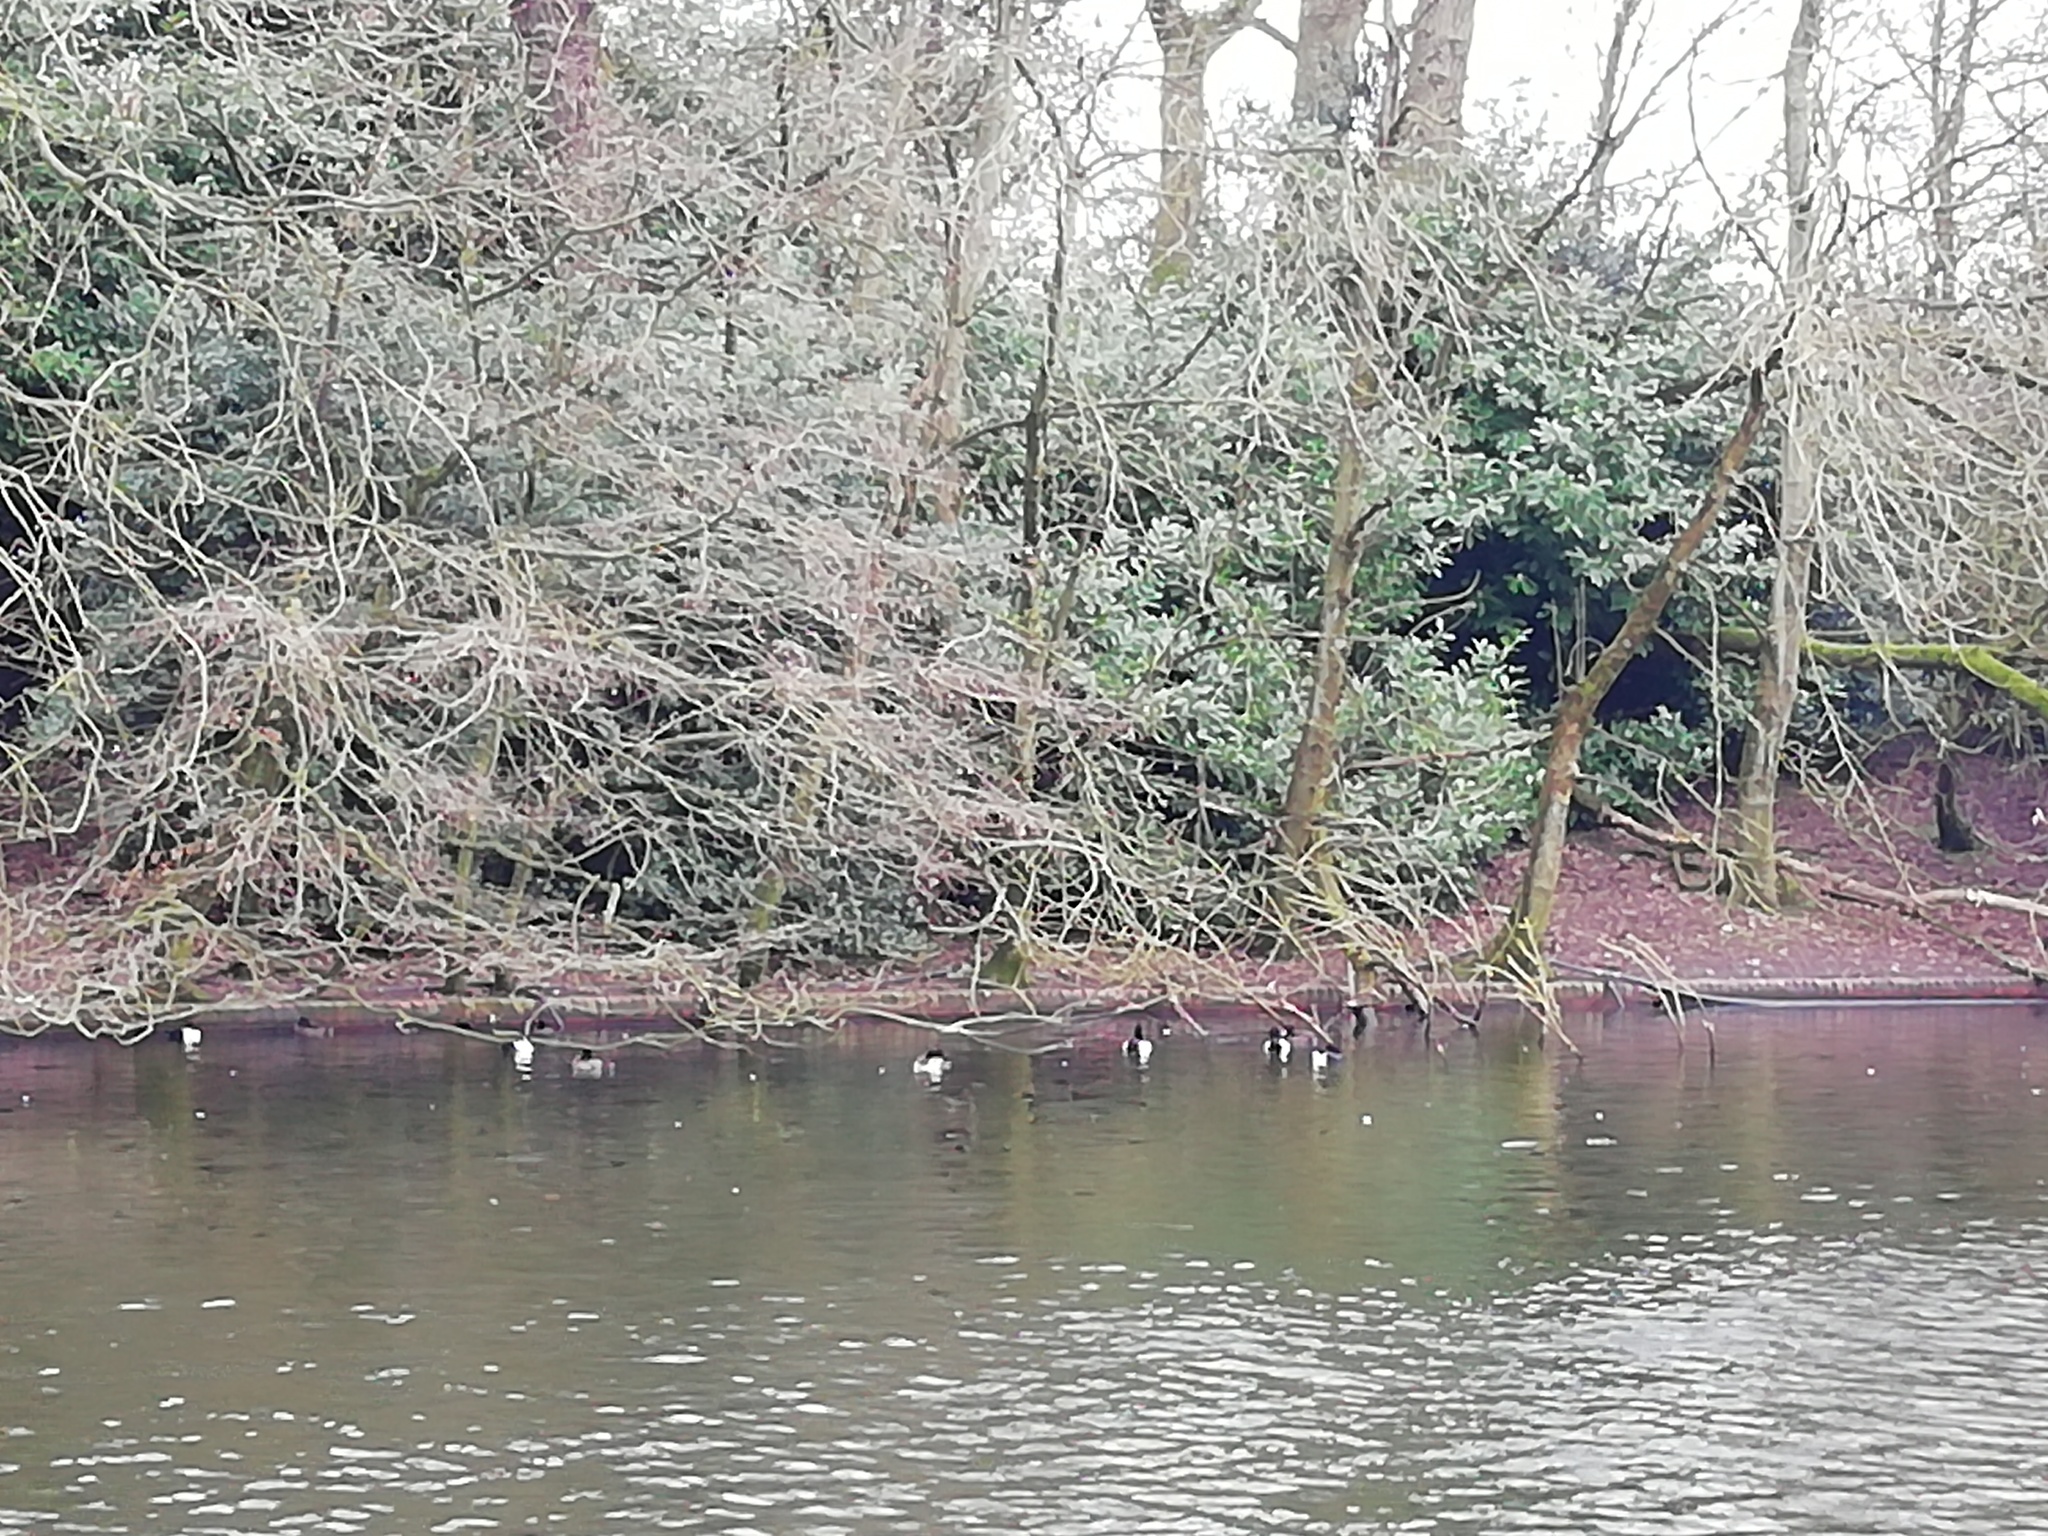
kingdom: Animalia
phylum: Chordata
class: Aves
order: Anseriformes
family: Anatidae
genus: Aythya
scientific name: Aythya fuligula
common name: Tufted duck
